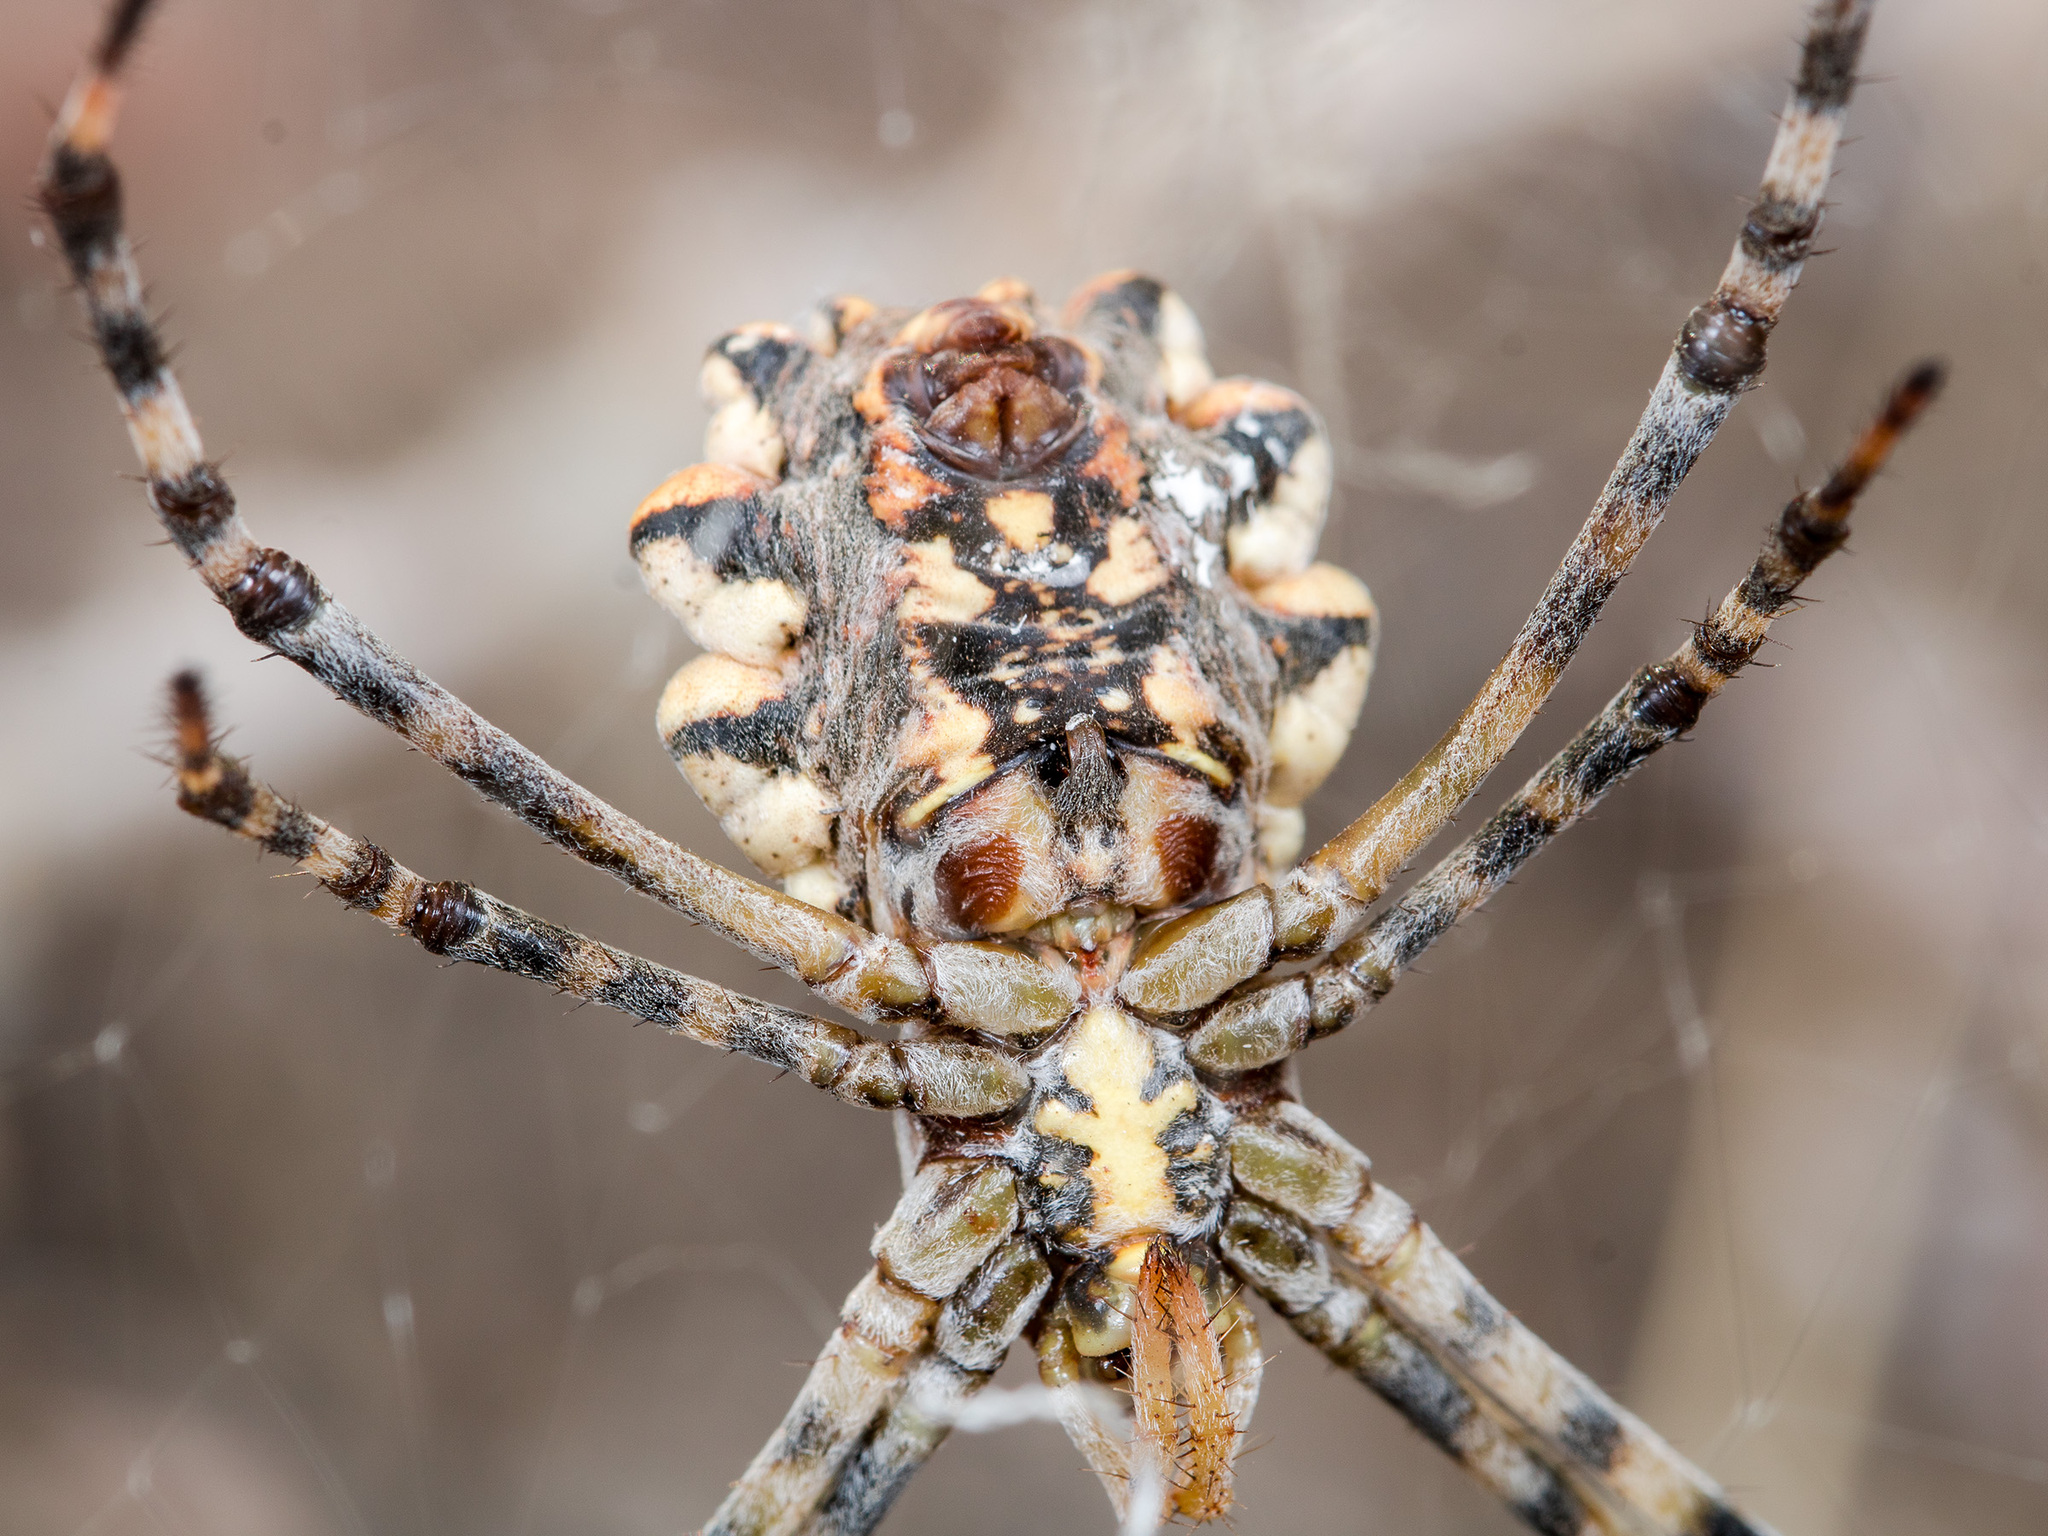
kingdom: Animalia
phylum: Arthropoda
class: Arachnida
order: Araneae
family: Araneidae
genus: Argiope
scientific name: Argiope lobata
